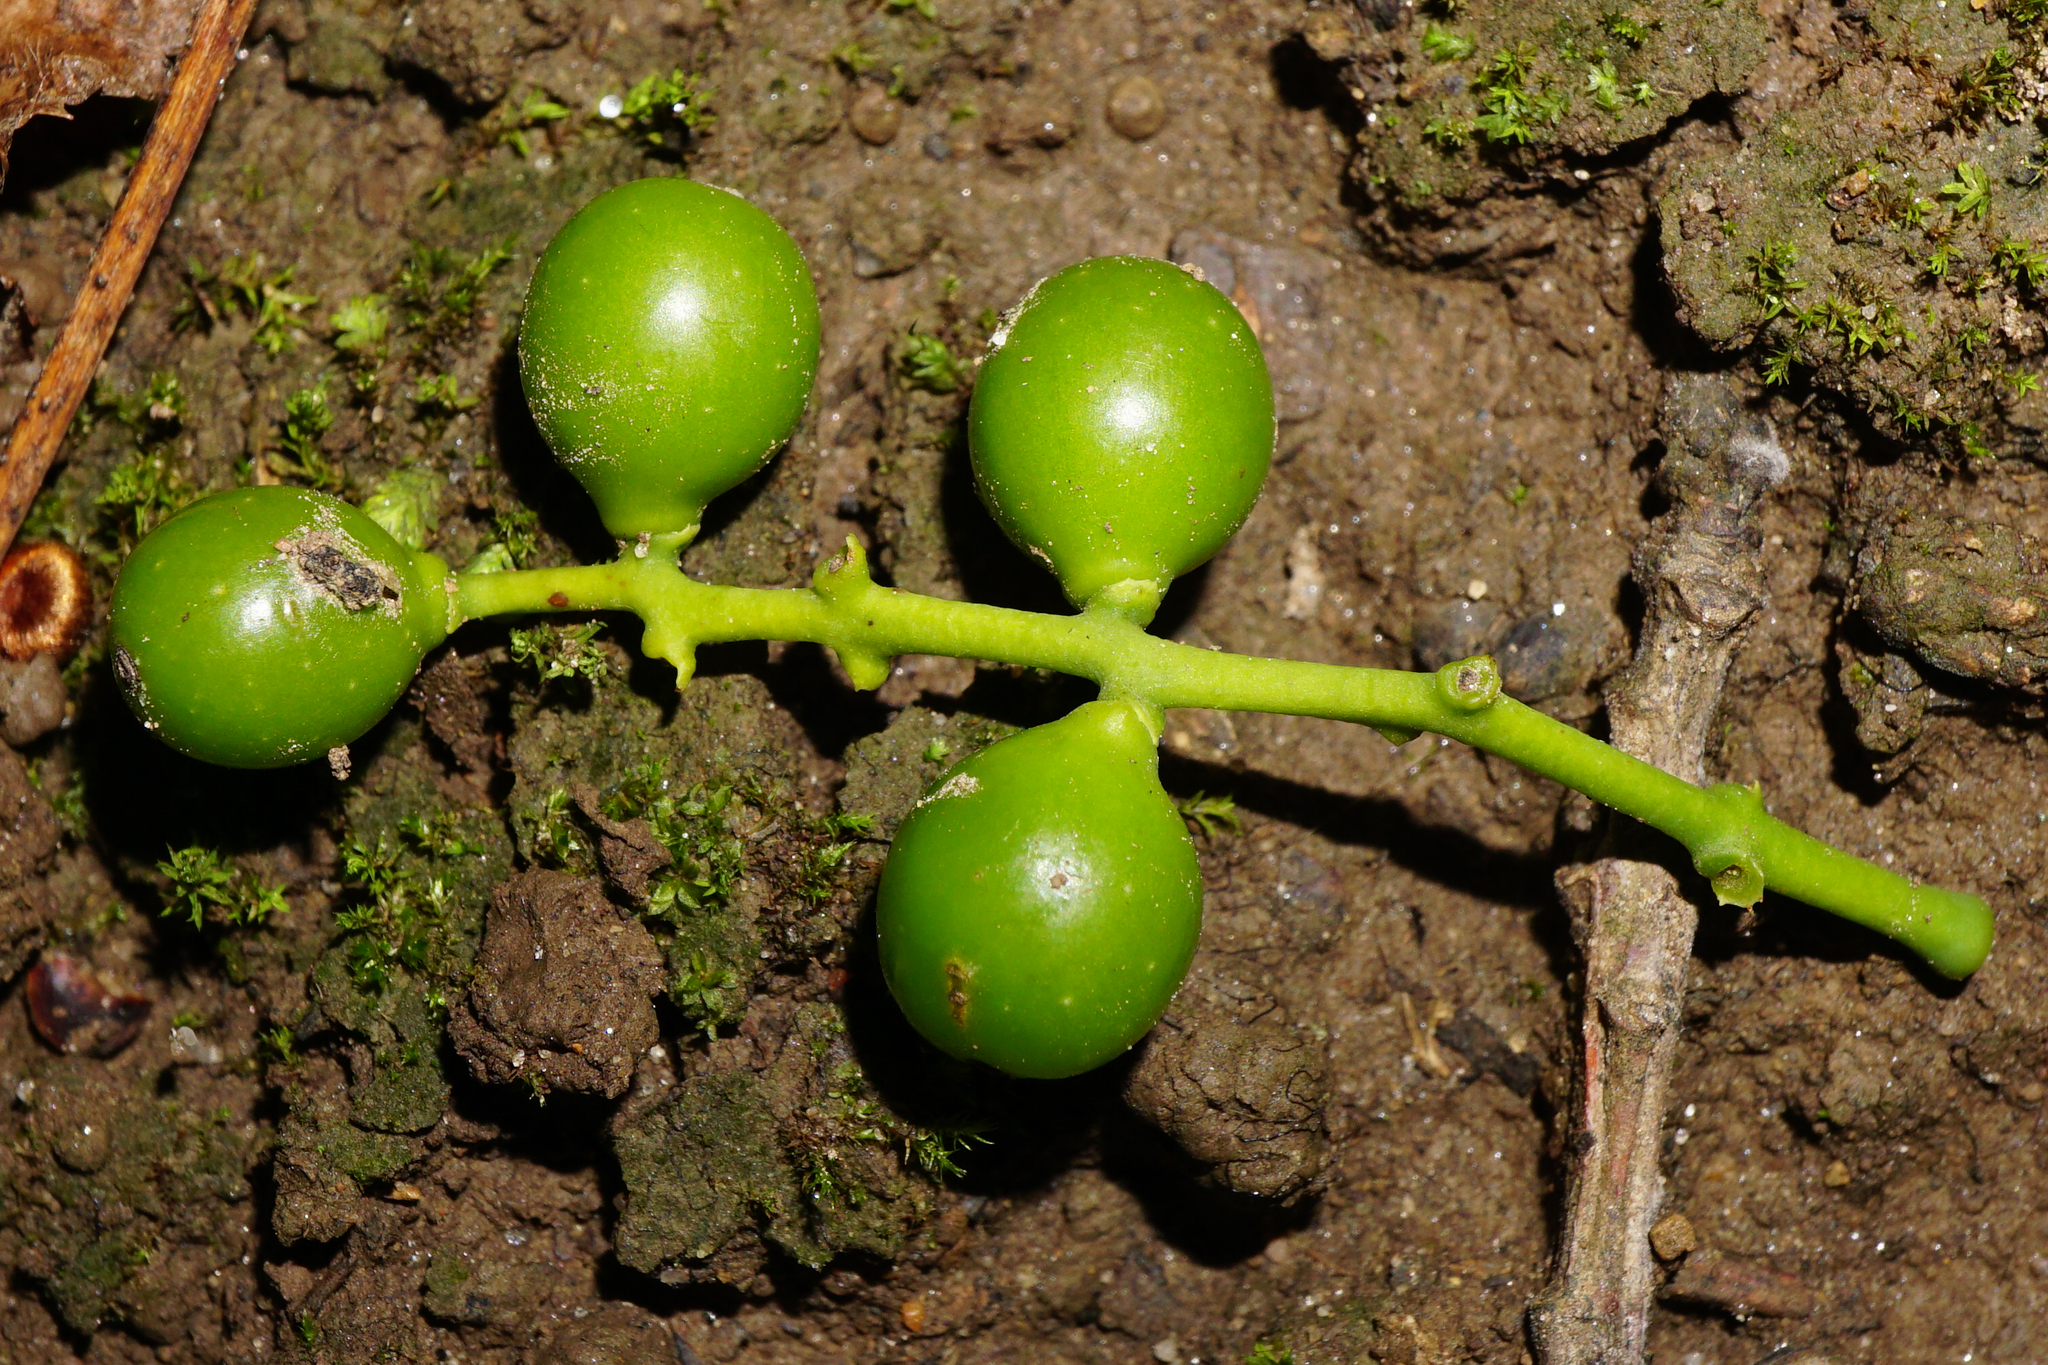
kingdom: Plantae
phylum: Tracheophyta
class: Magnoliopsida
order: Santalales
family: Loranthaceae
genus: Loranthus
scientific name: Loranthus europaeus
